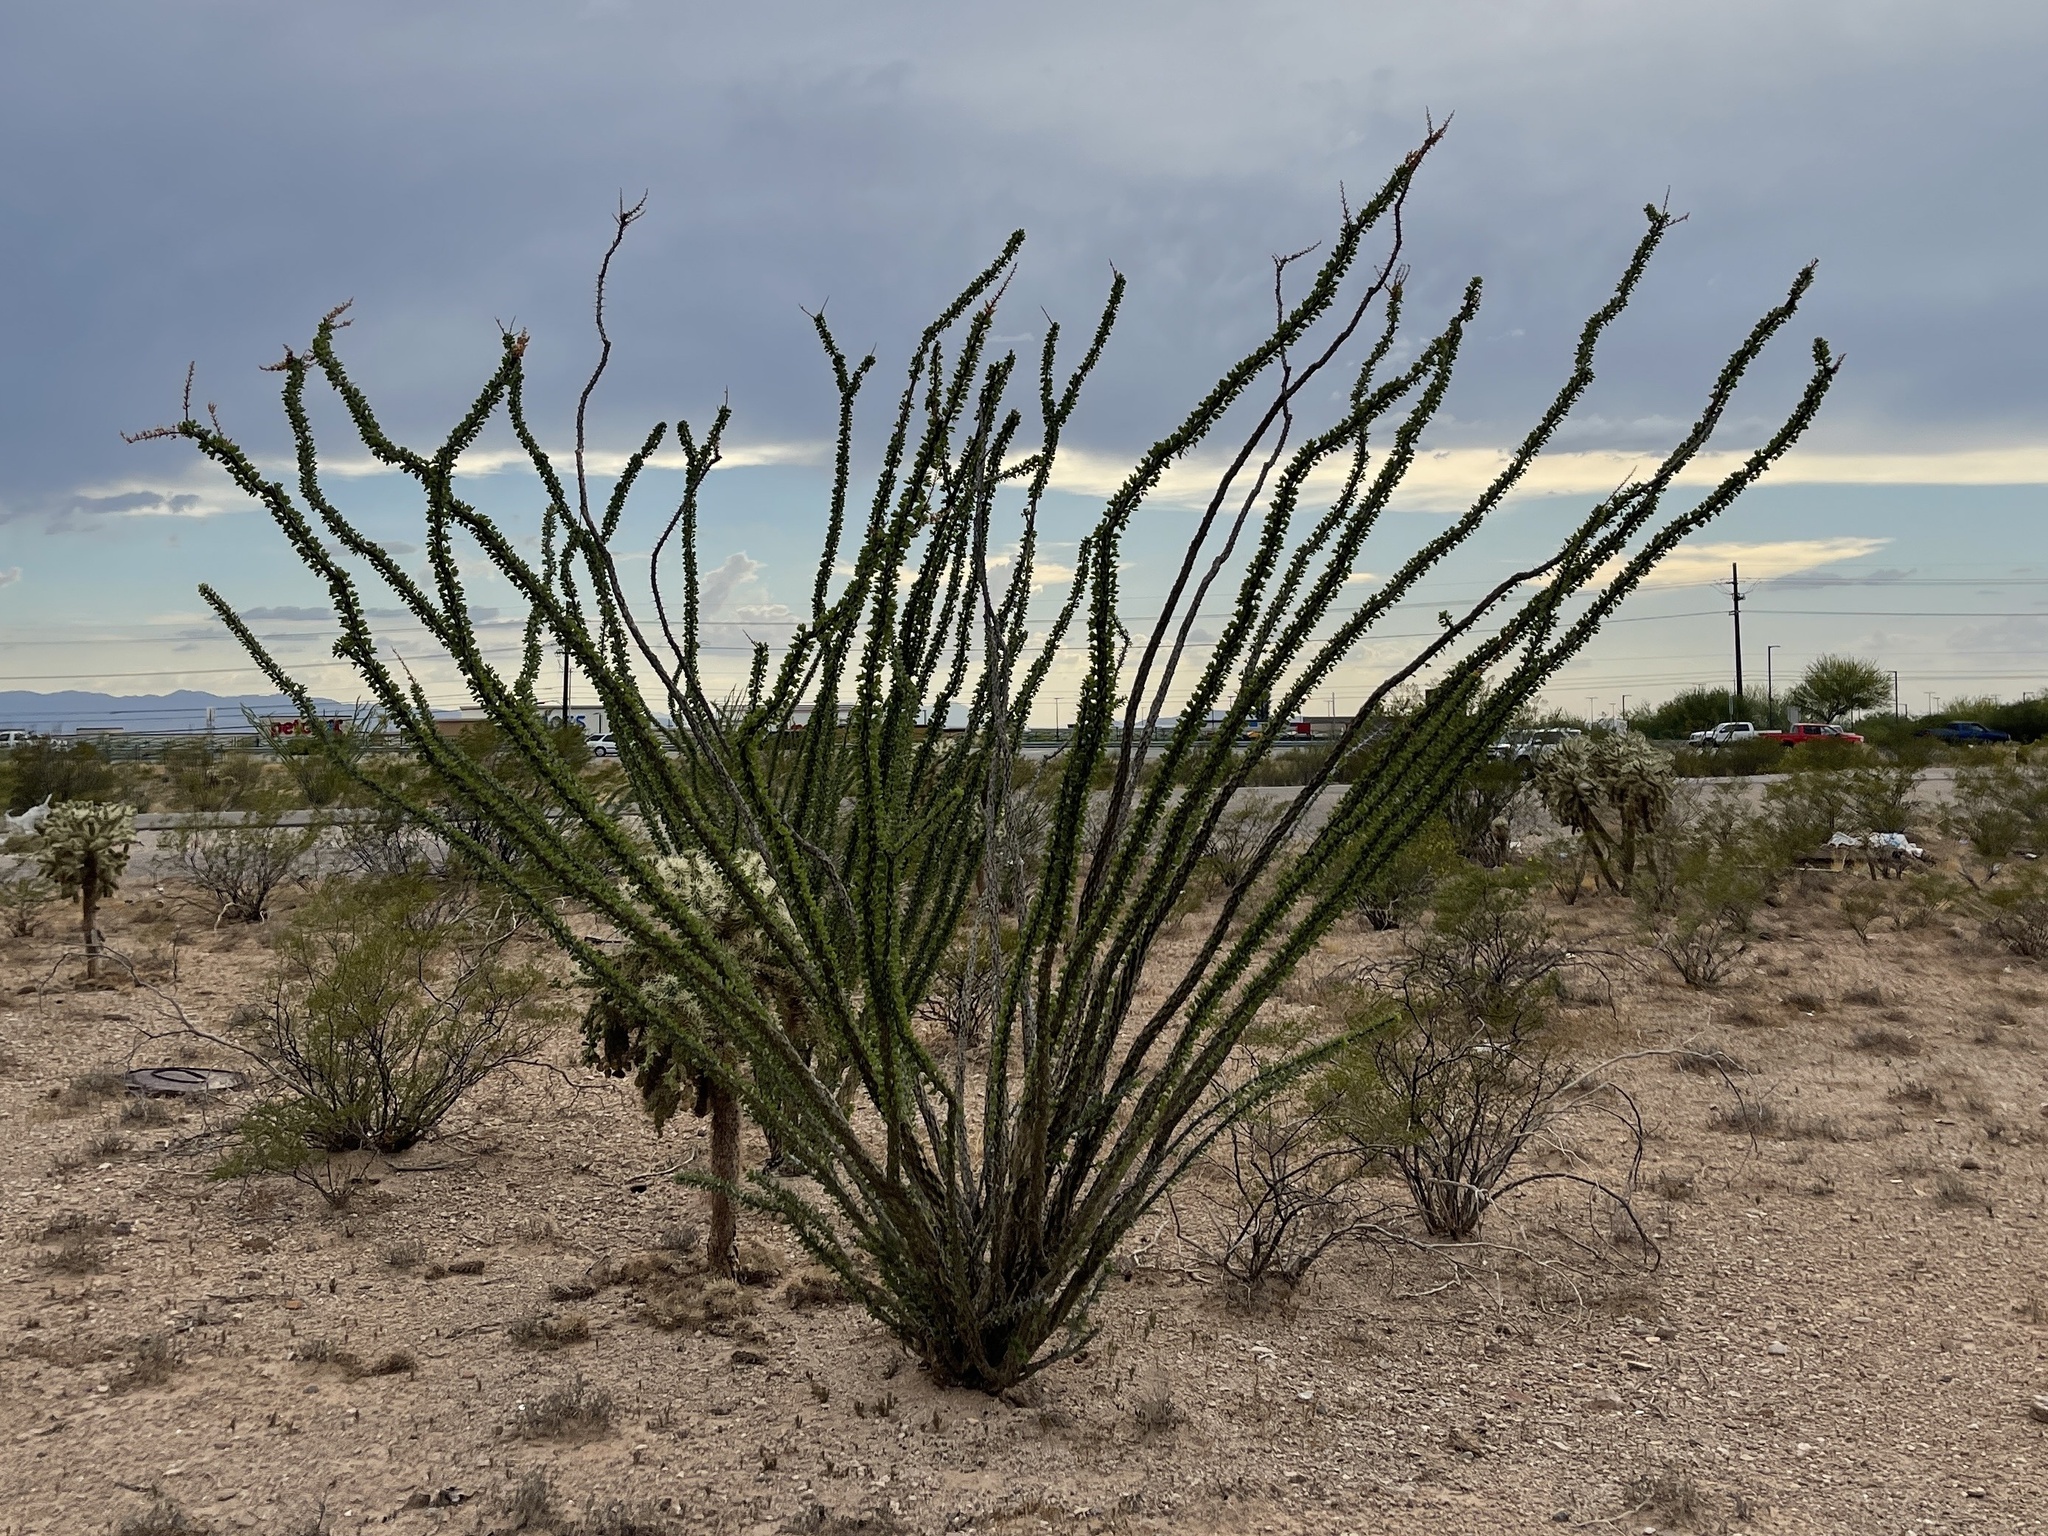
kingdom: Plantae
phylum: Tracheophyta
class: Magnoliopsida
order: Ericales
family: Fouquieriaceae
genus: Fouquieria
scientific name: Fouquieria splendens
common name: Vine-cactus
